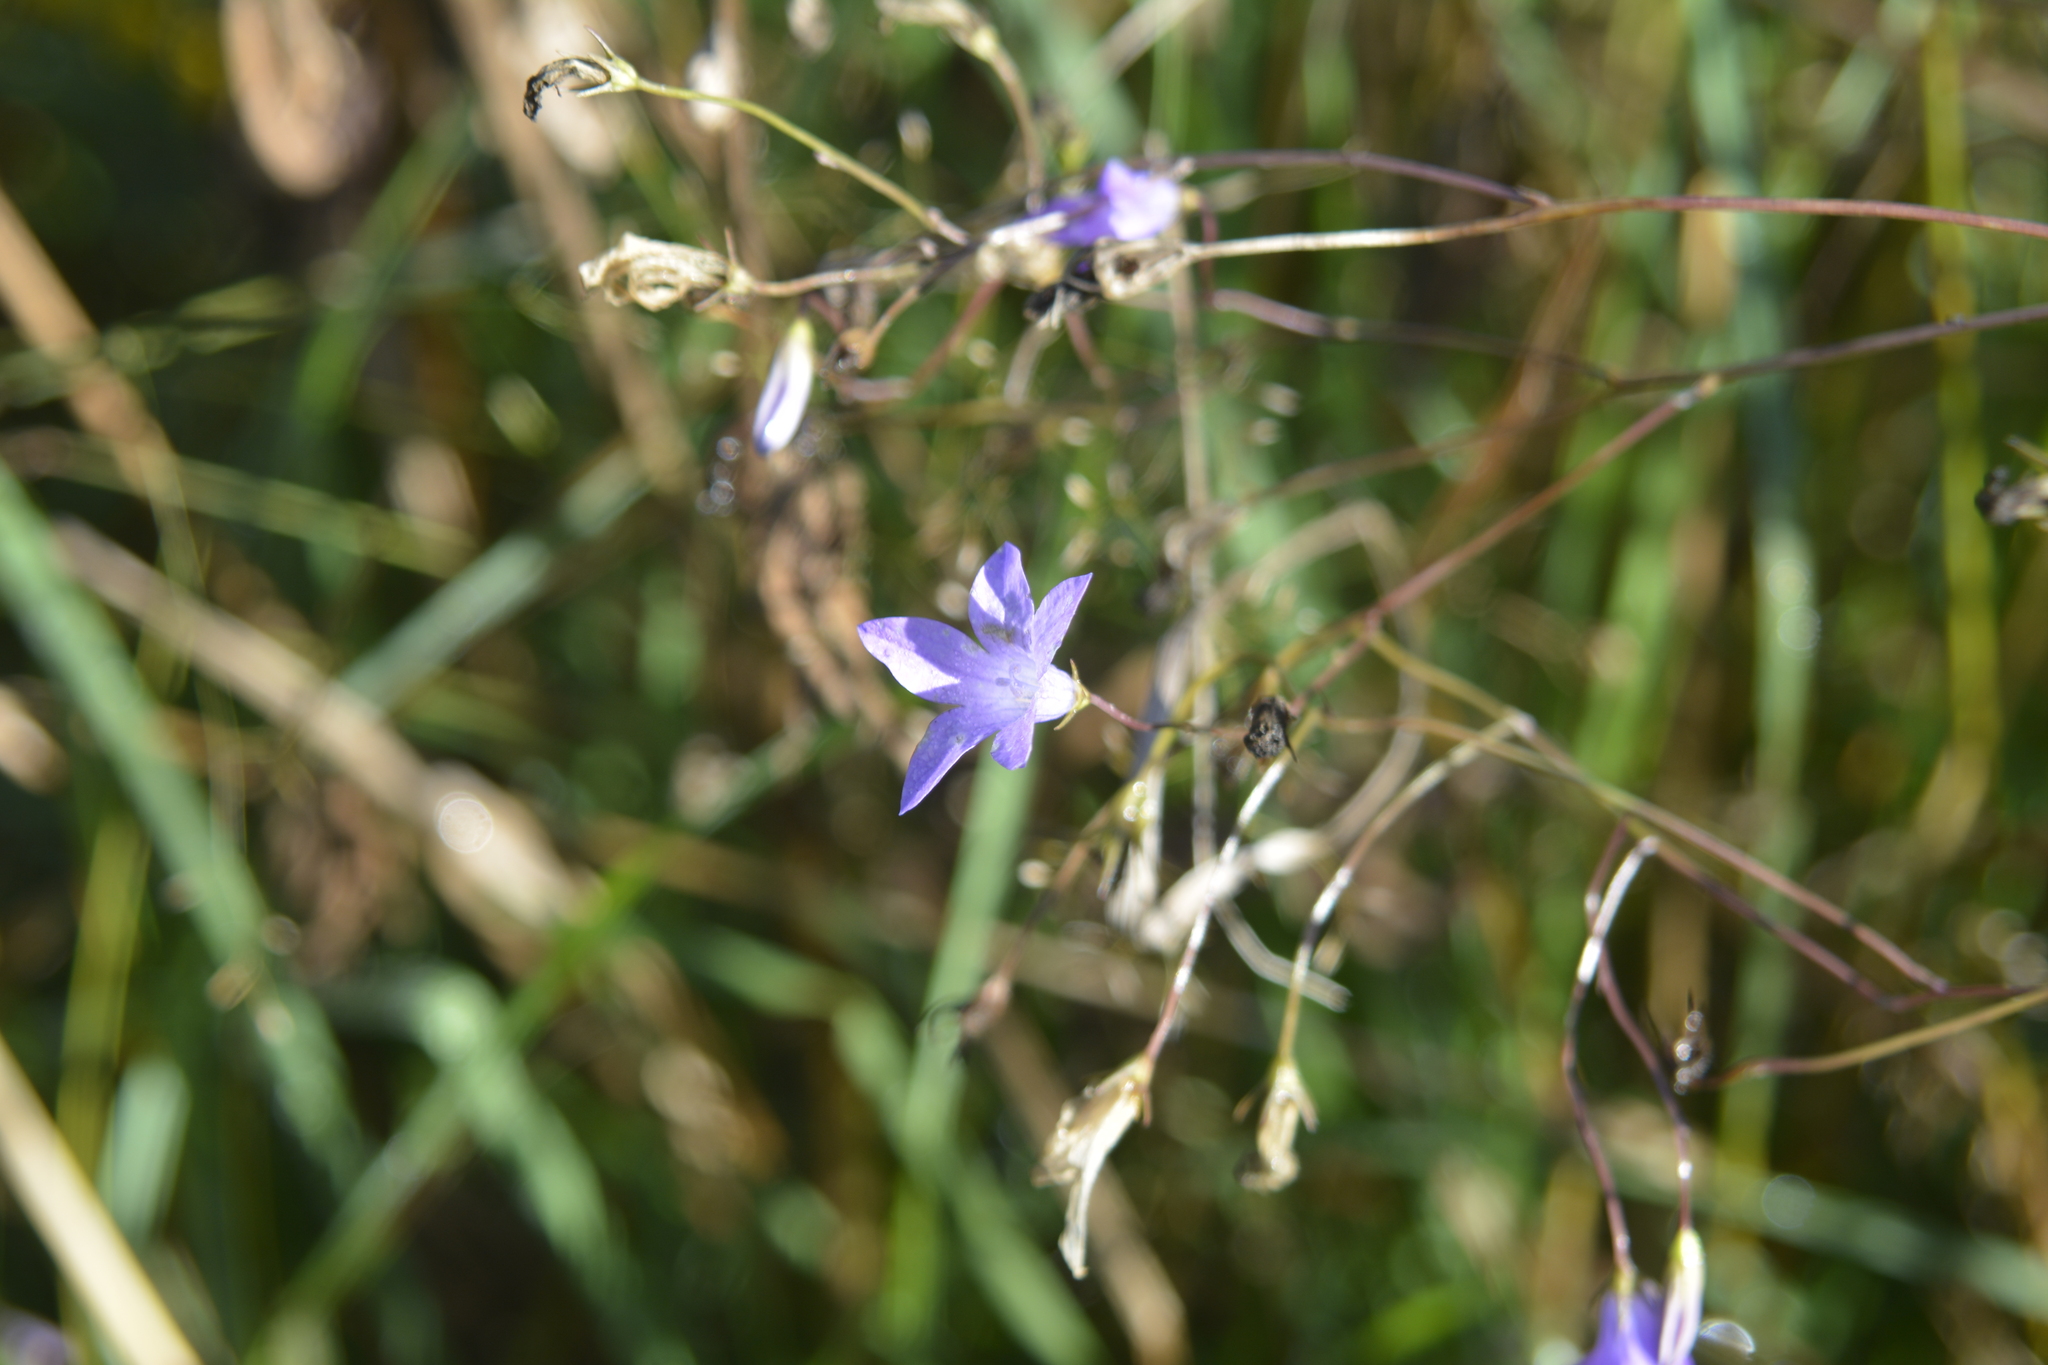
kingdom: Plantae
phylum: Tracheophyta
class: Magnoliopsida
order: Asterales
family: Campanulaceae
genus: Campanula
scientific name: Campanula patula
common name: Spreading bellflower
